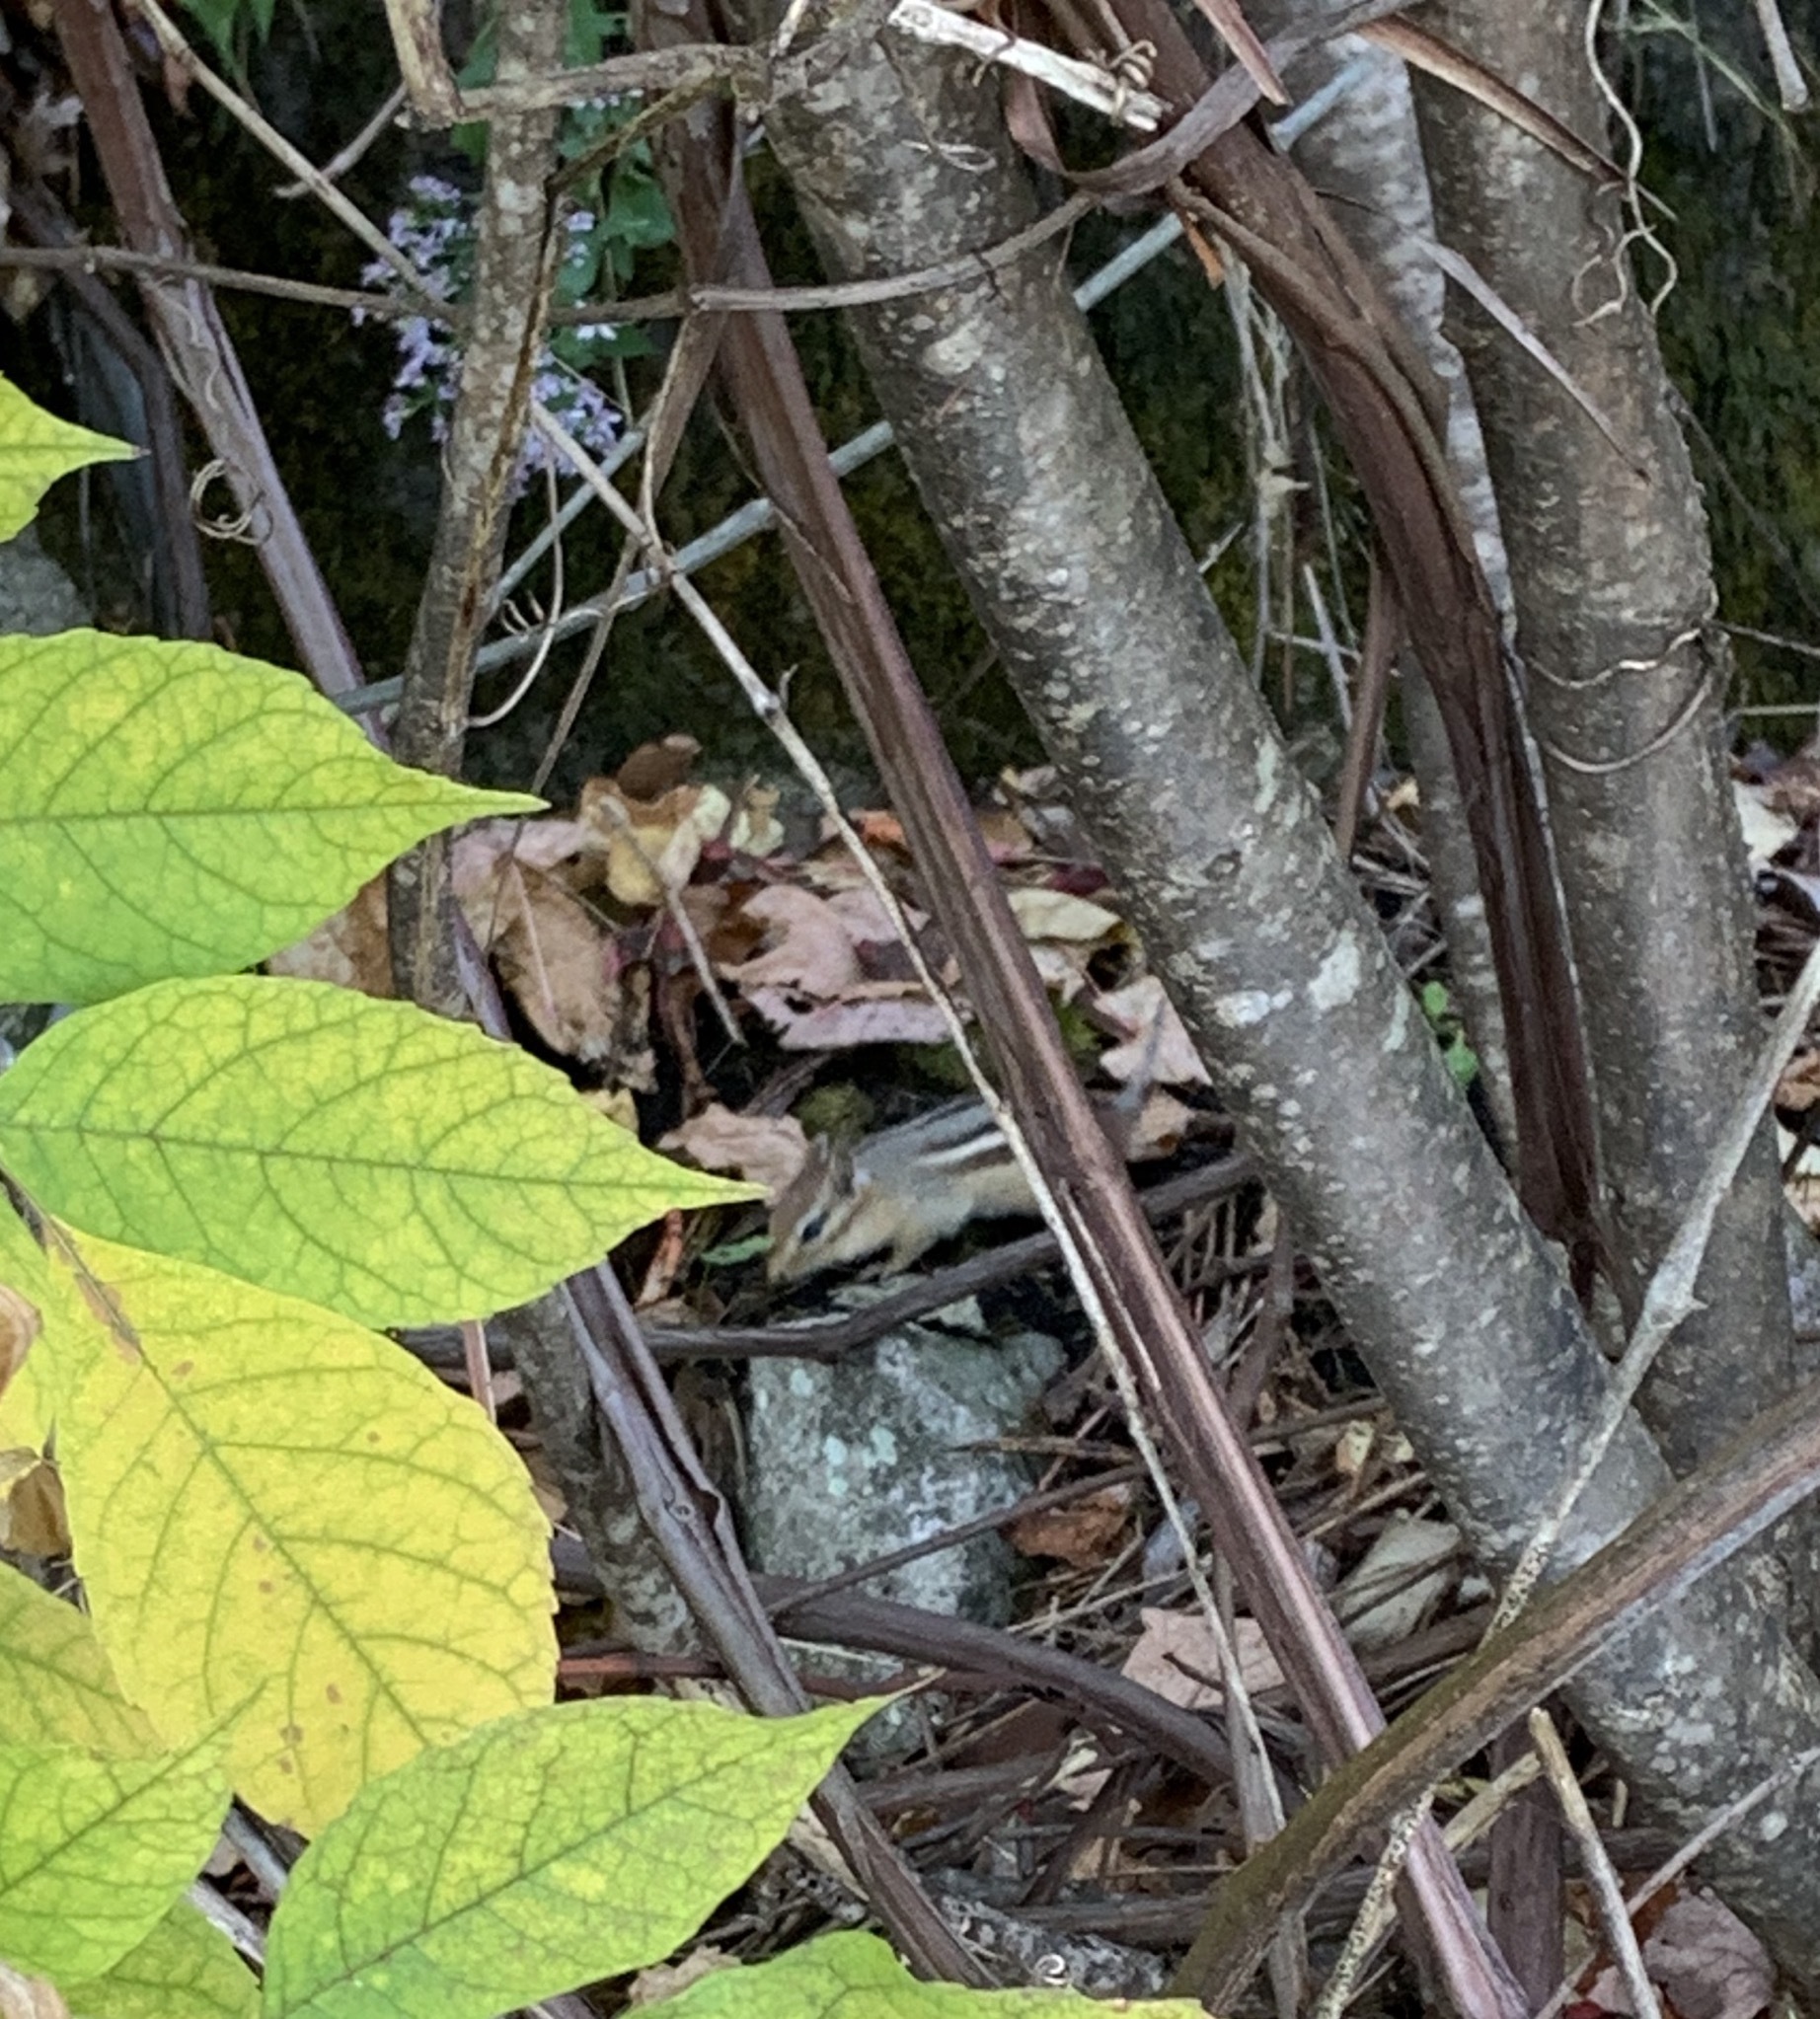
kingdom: Animalia
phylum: Chordata
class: Mammalia
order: Rodentia
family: Sciuridae
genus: Tamias
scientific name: Tamias striatus
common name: Eastern chipmunk
